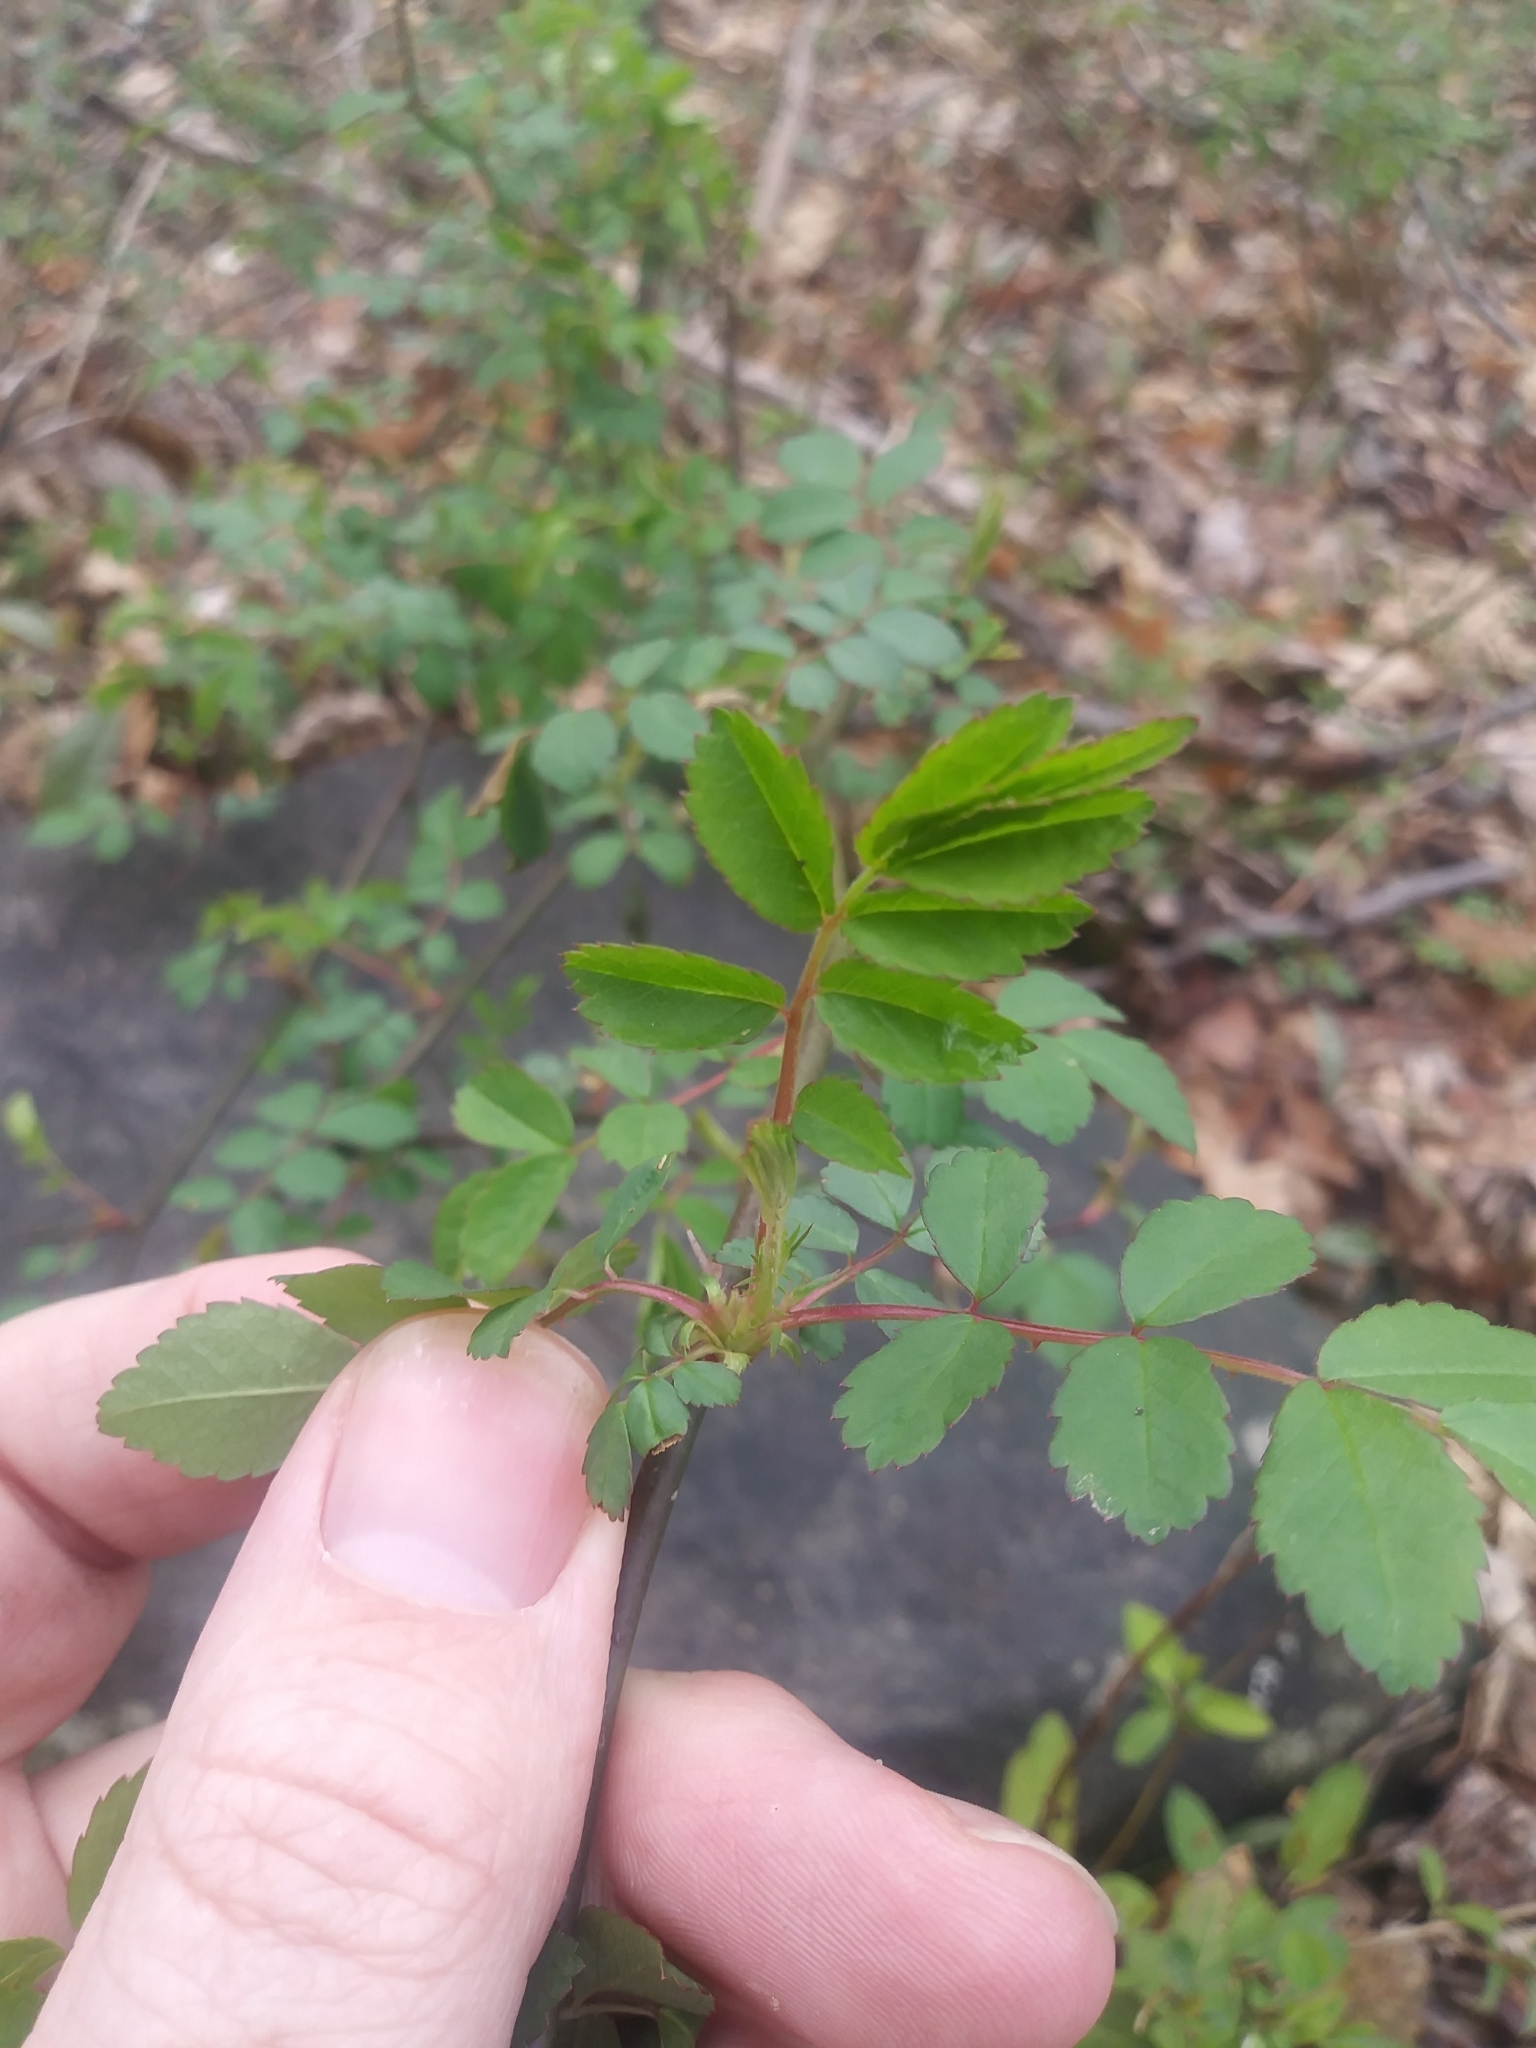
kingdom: Plantae
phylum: Tracheophyta
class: Magnoliopsida
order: Rosales
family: Rosaceae
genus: Rosa
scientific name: Rosa multiflora
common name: Multiflora rose
